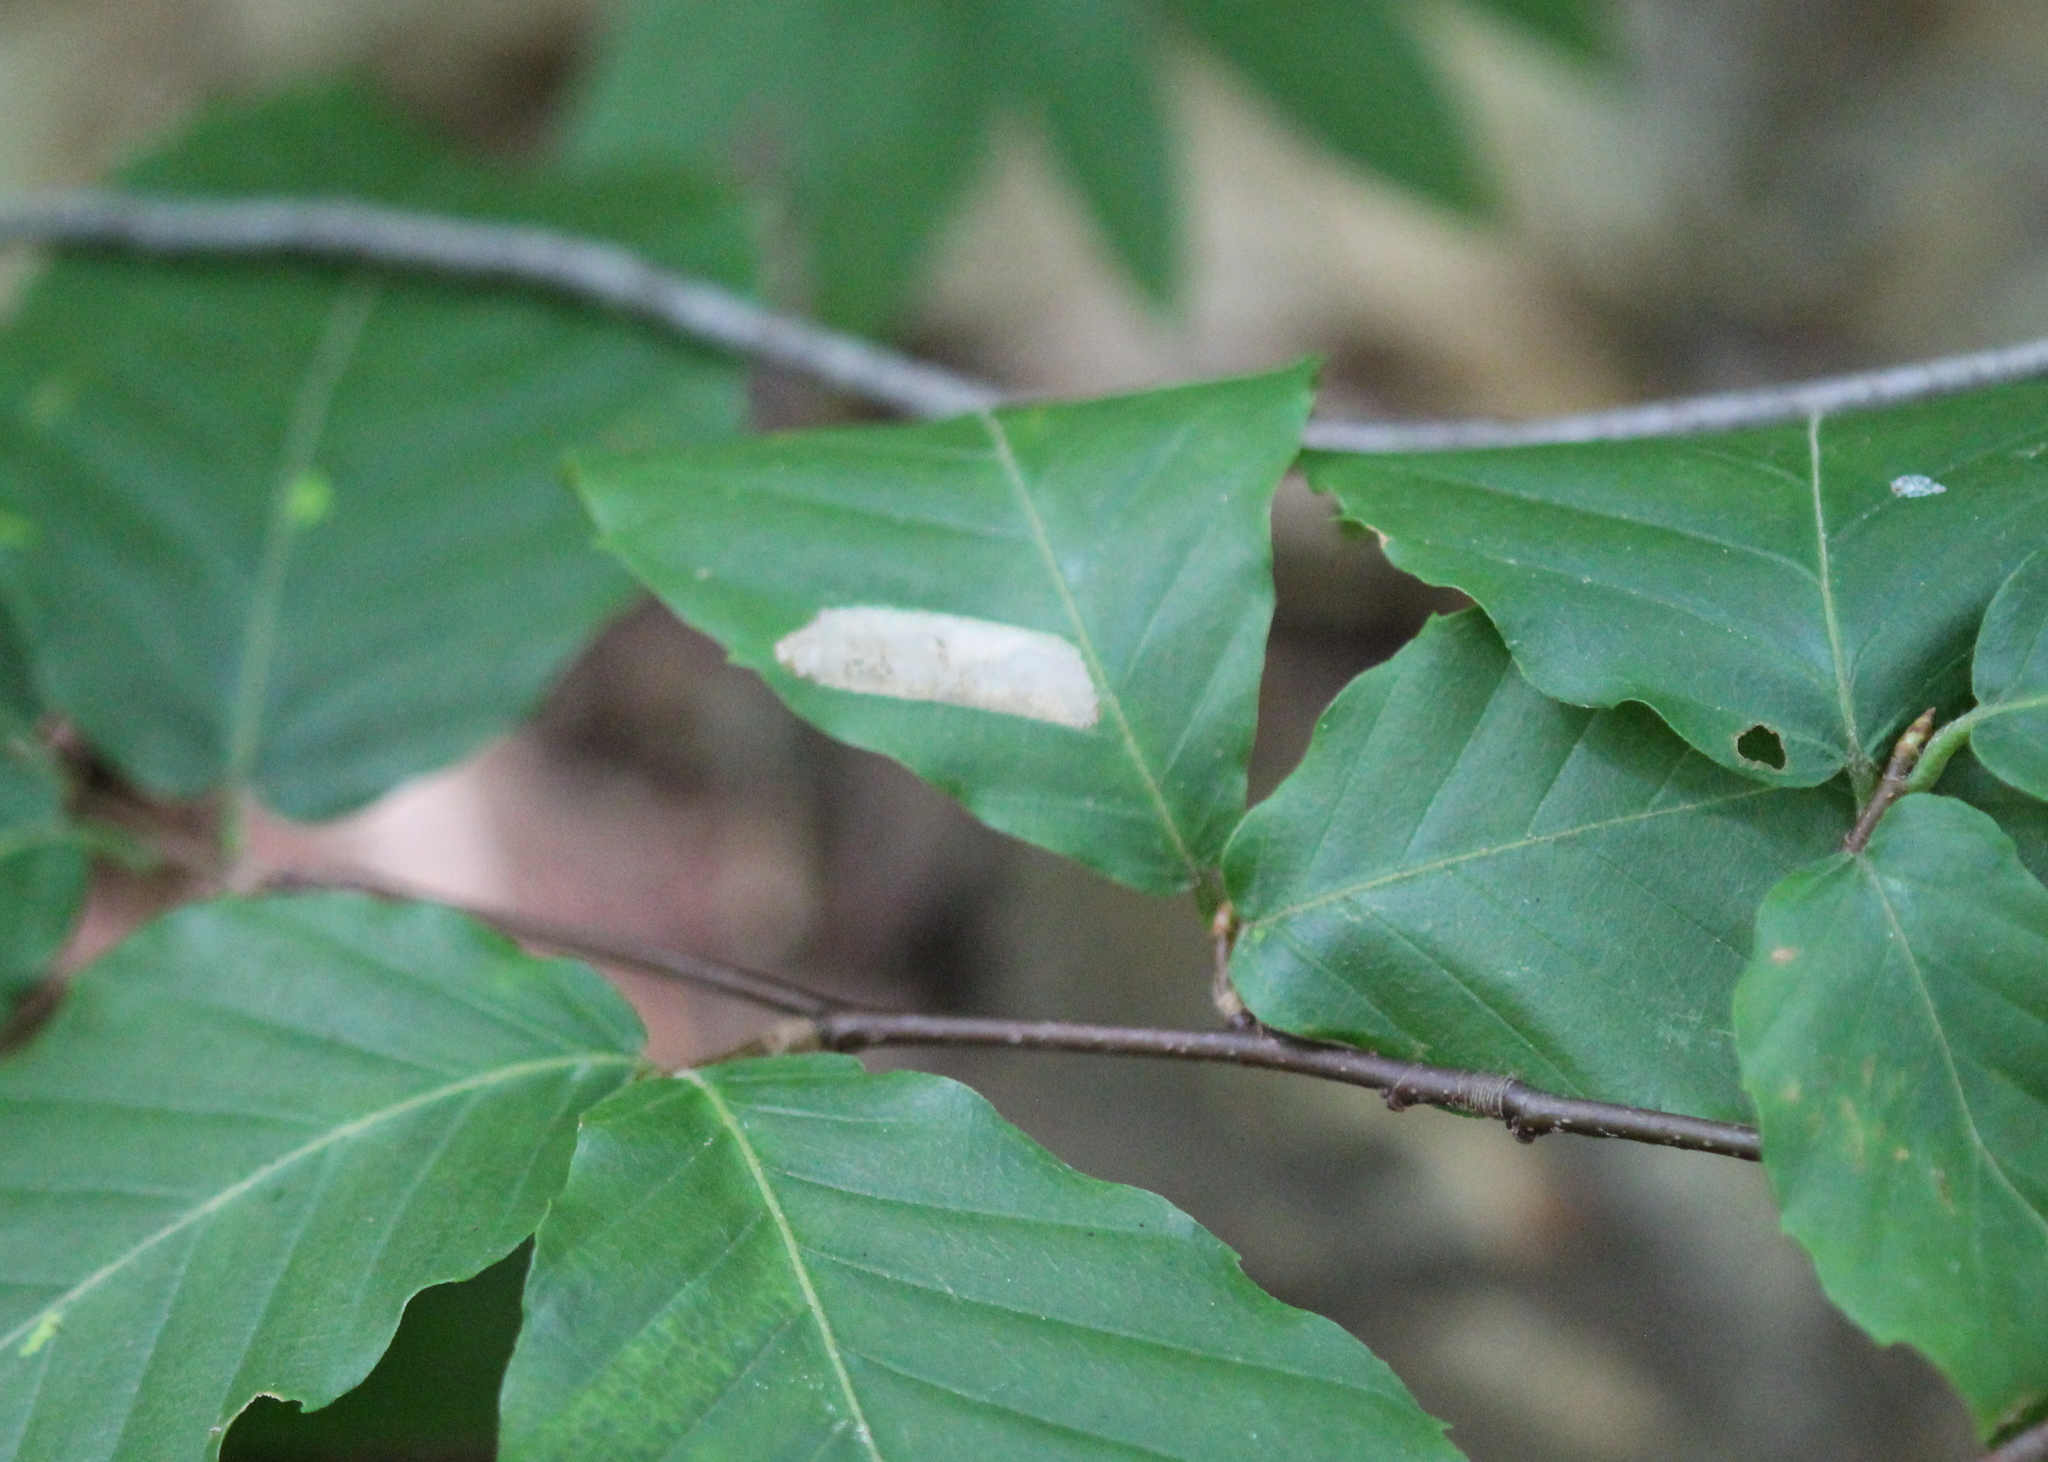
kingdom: Plantae
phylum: Tracheophyta
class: Magnoliopsida
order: Fagales
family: Fagaceae
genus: Fagus
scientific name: Fagus grandifolia
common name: American beech
